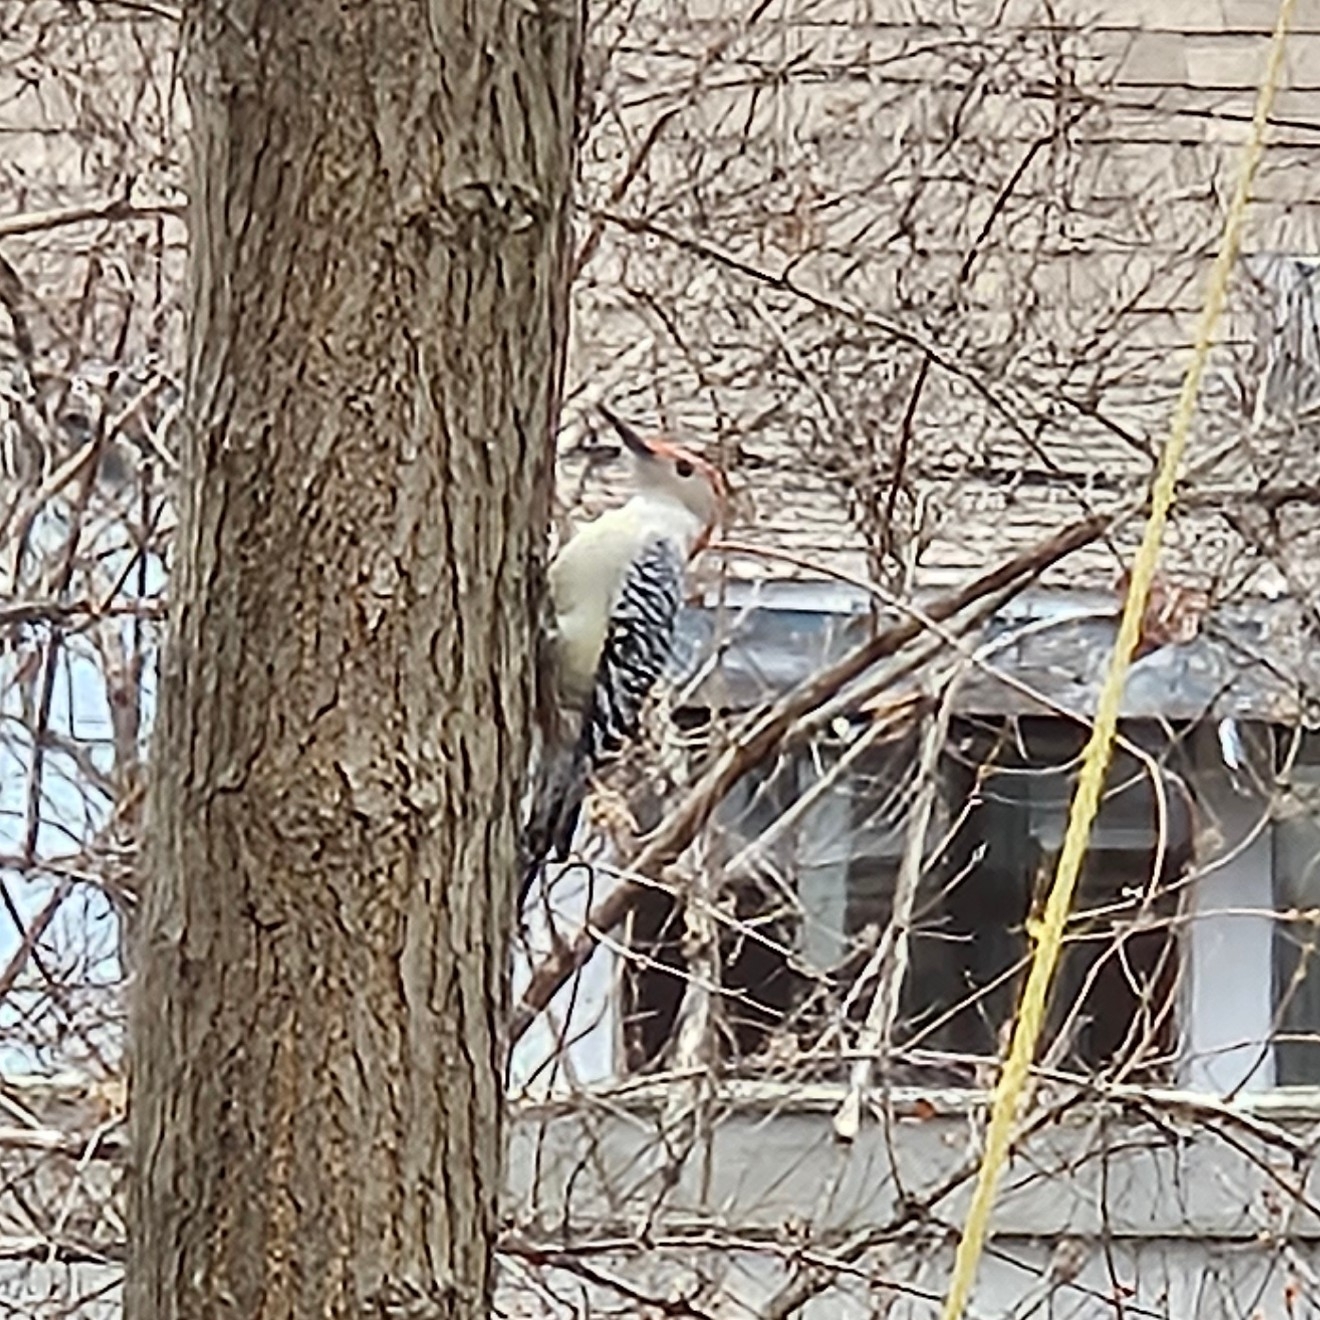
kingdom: Animalia
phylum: Chordata
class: Aves
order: Piciformes
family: Picidae
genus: Melanerpes
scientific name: Melanerpes carolinus
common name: Red-bellied woodpecker
